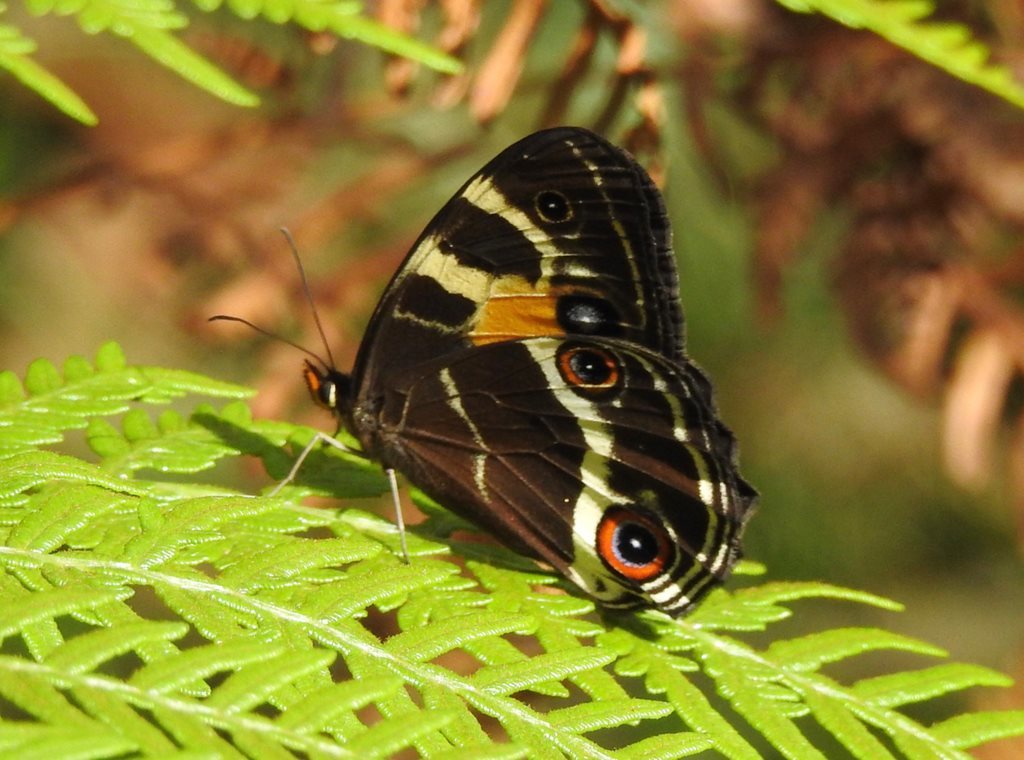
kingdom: Animalia
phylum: Arthropoda
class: Insecta
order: Lepidoptera
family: Nymphalidae
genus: Tisiphone
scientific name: Tisiphone abeona
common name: Swordgrass brown
